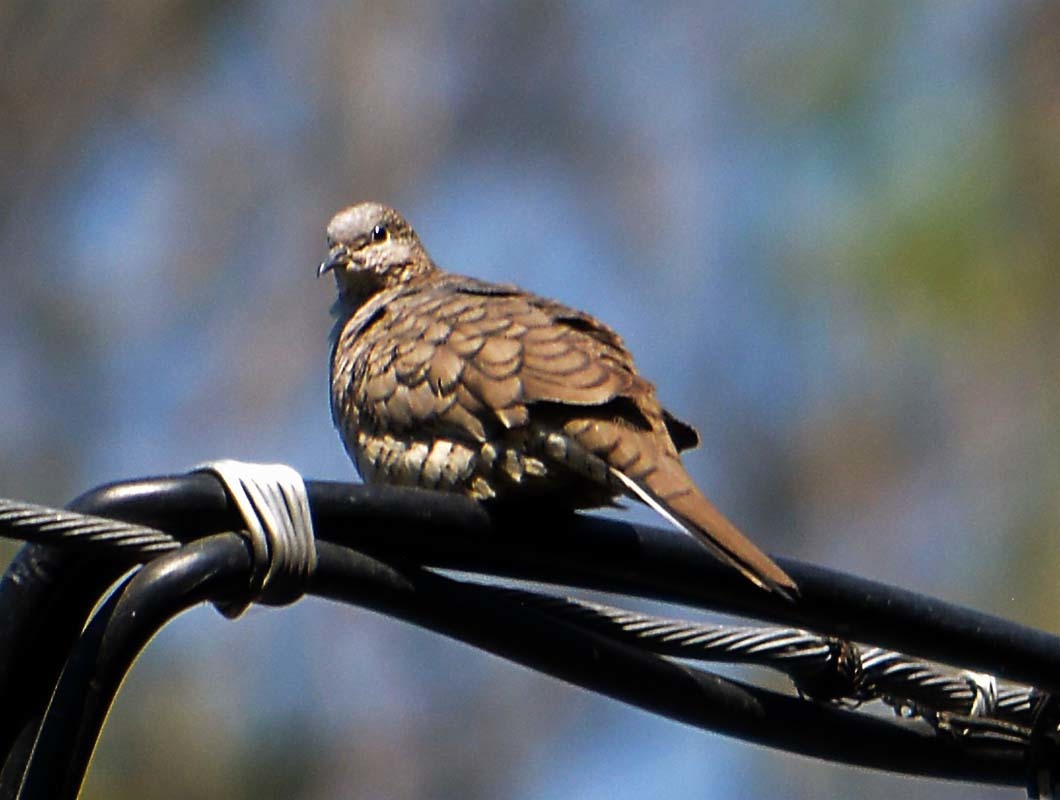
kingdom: Animalia
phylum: Chordata
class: Aves
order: Columbiformes
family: Columbidae
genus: Columbina
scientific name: Columbina inca
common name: Inca dove
